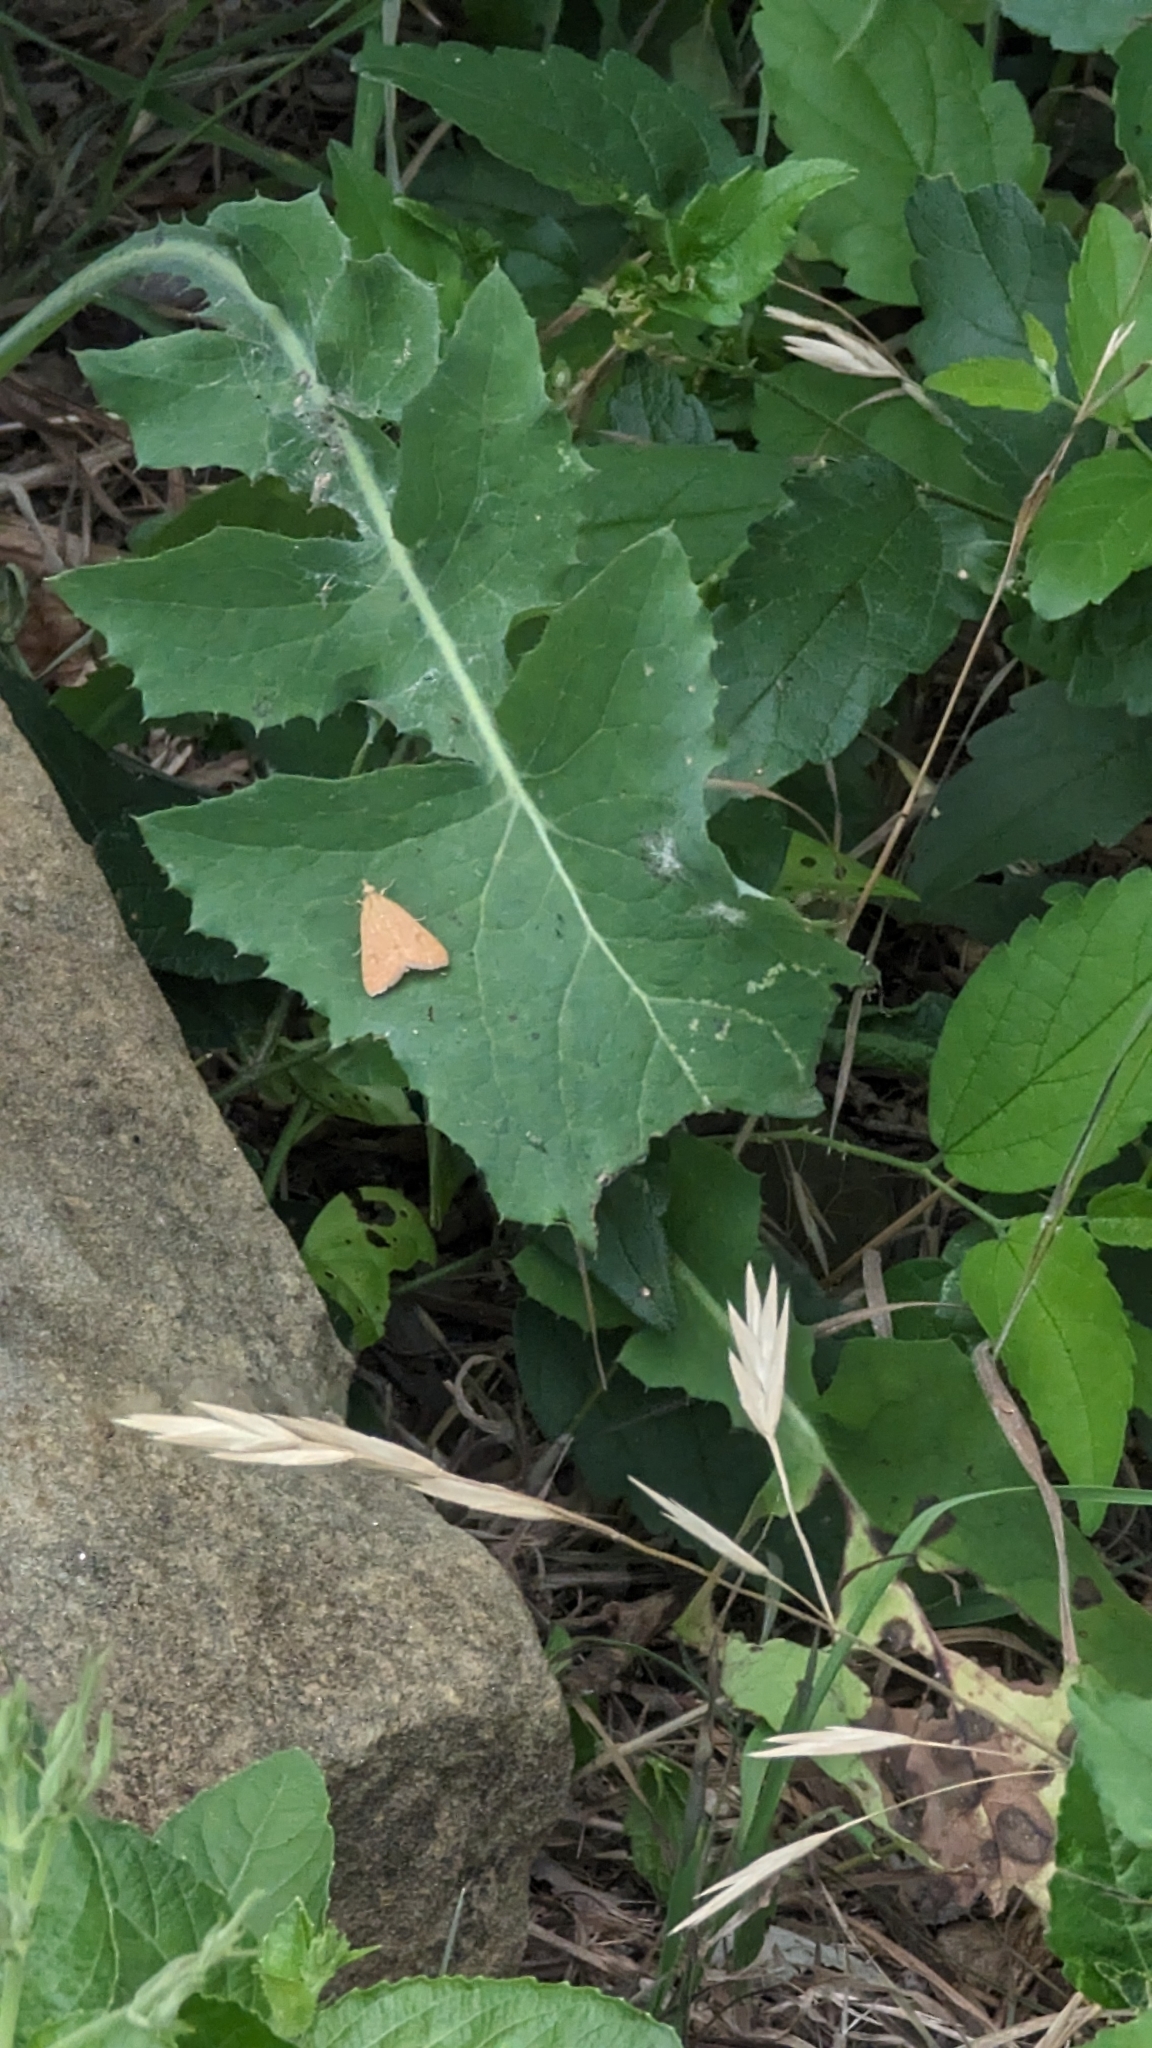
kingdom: Animalia
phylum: Arthropoda
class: Insecta
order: Lepidoptera
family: Crambidae
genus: Achyra
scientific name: Achyra rantalis
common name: Garden webworm
